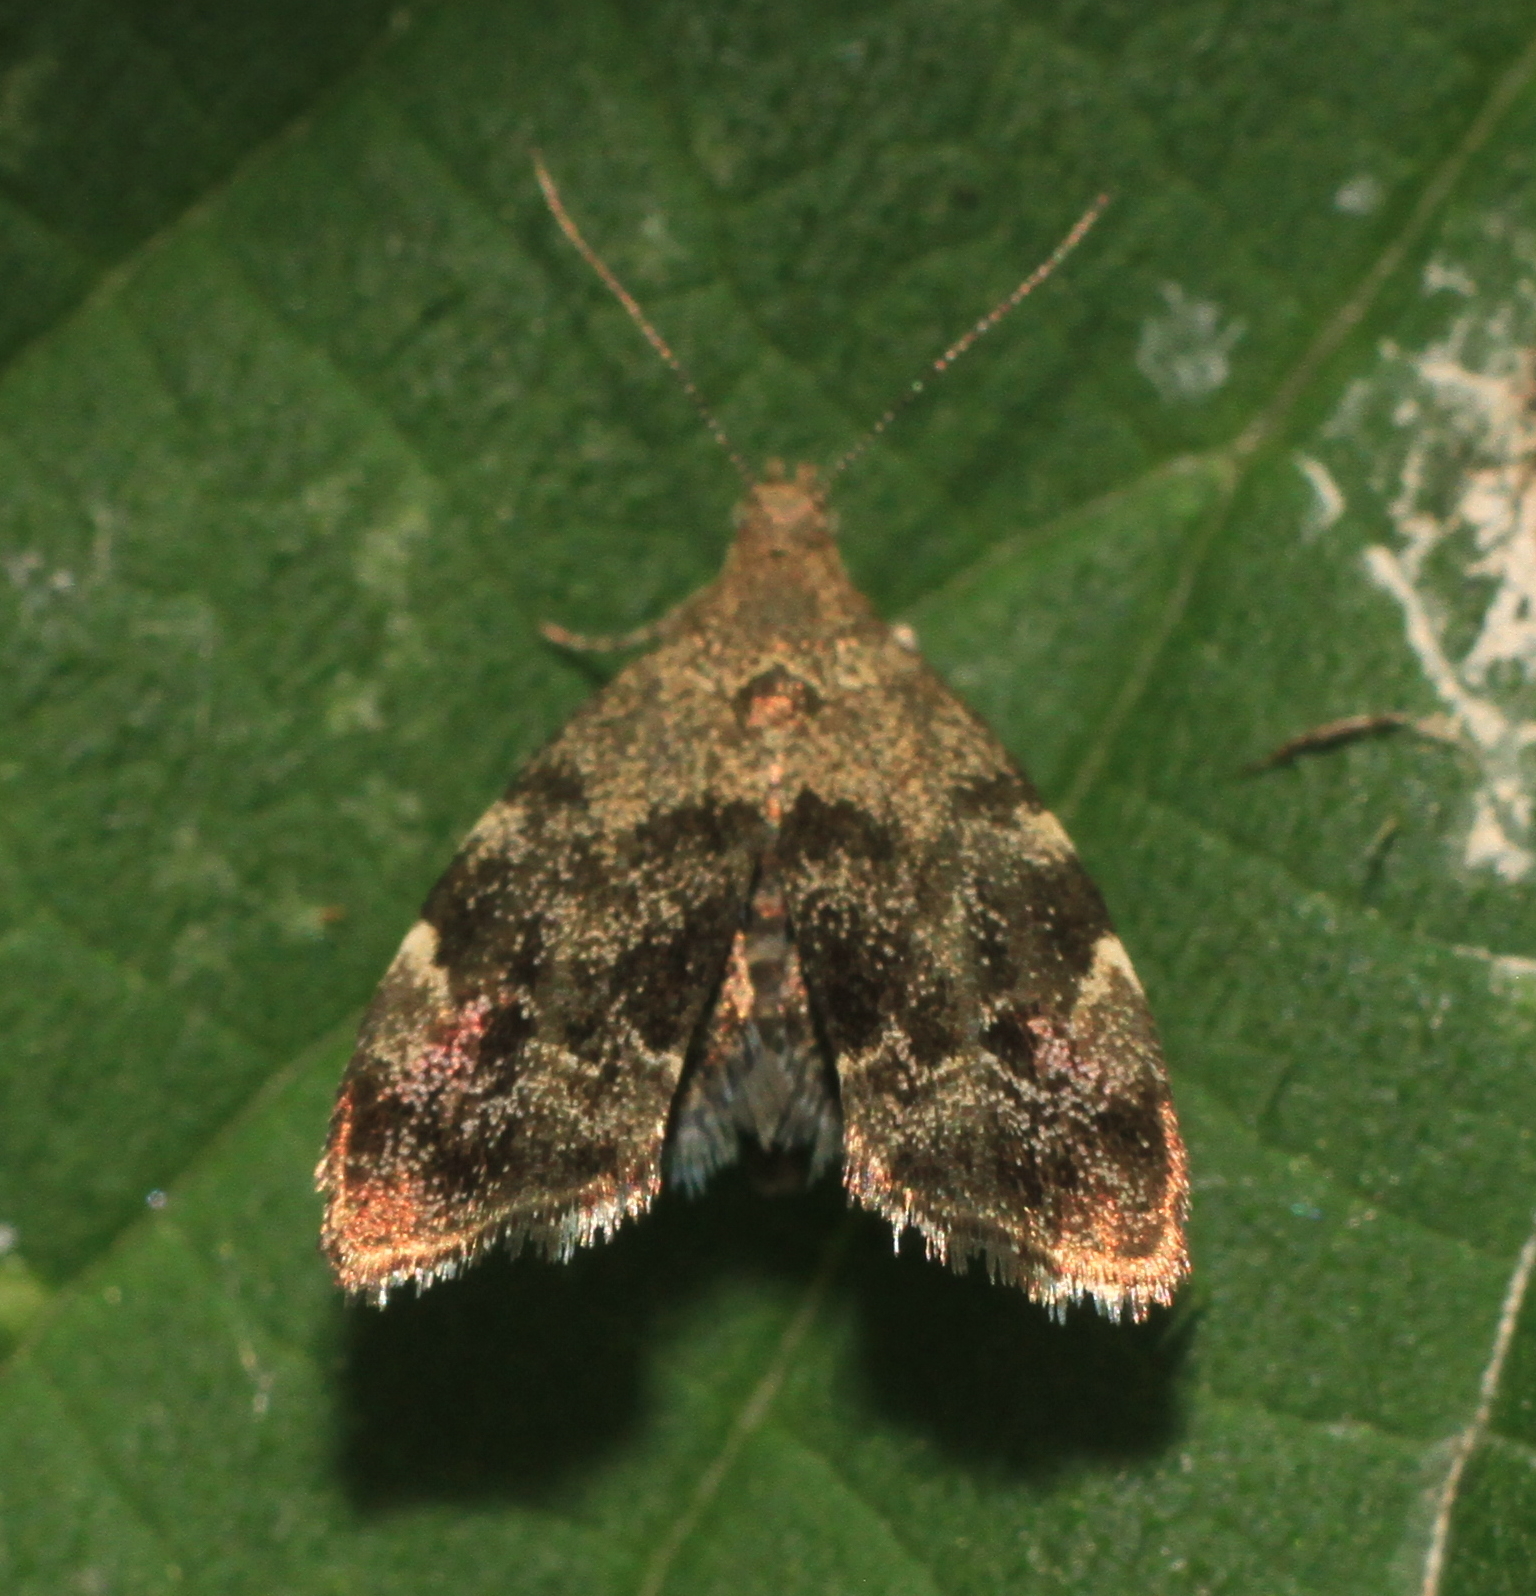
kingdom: Animalia
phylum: Arthropoda
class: Insecta
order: Lepidoptera
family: Choreutidae
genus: Anthophila
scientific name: Anthophila fabriciana
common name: Nettle-tap
